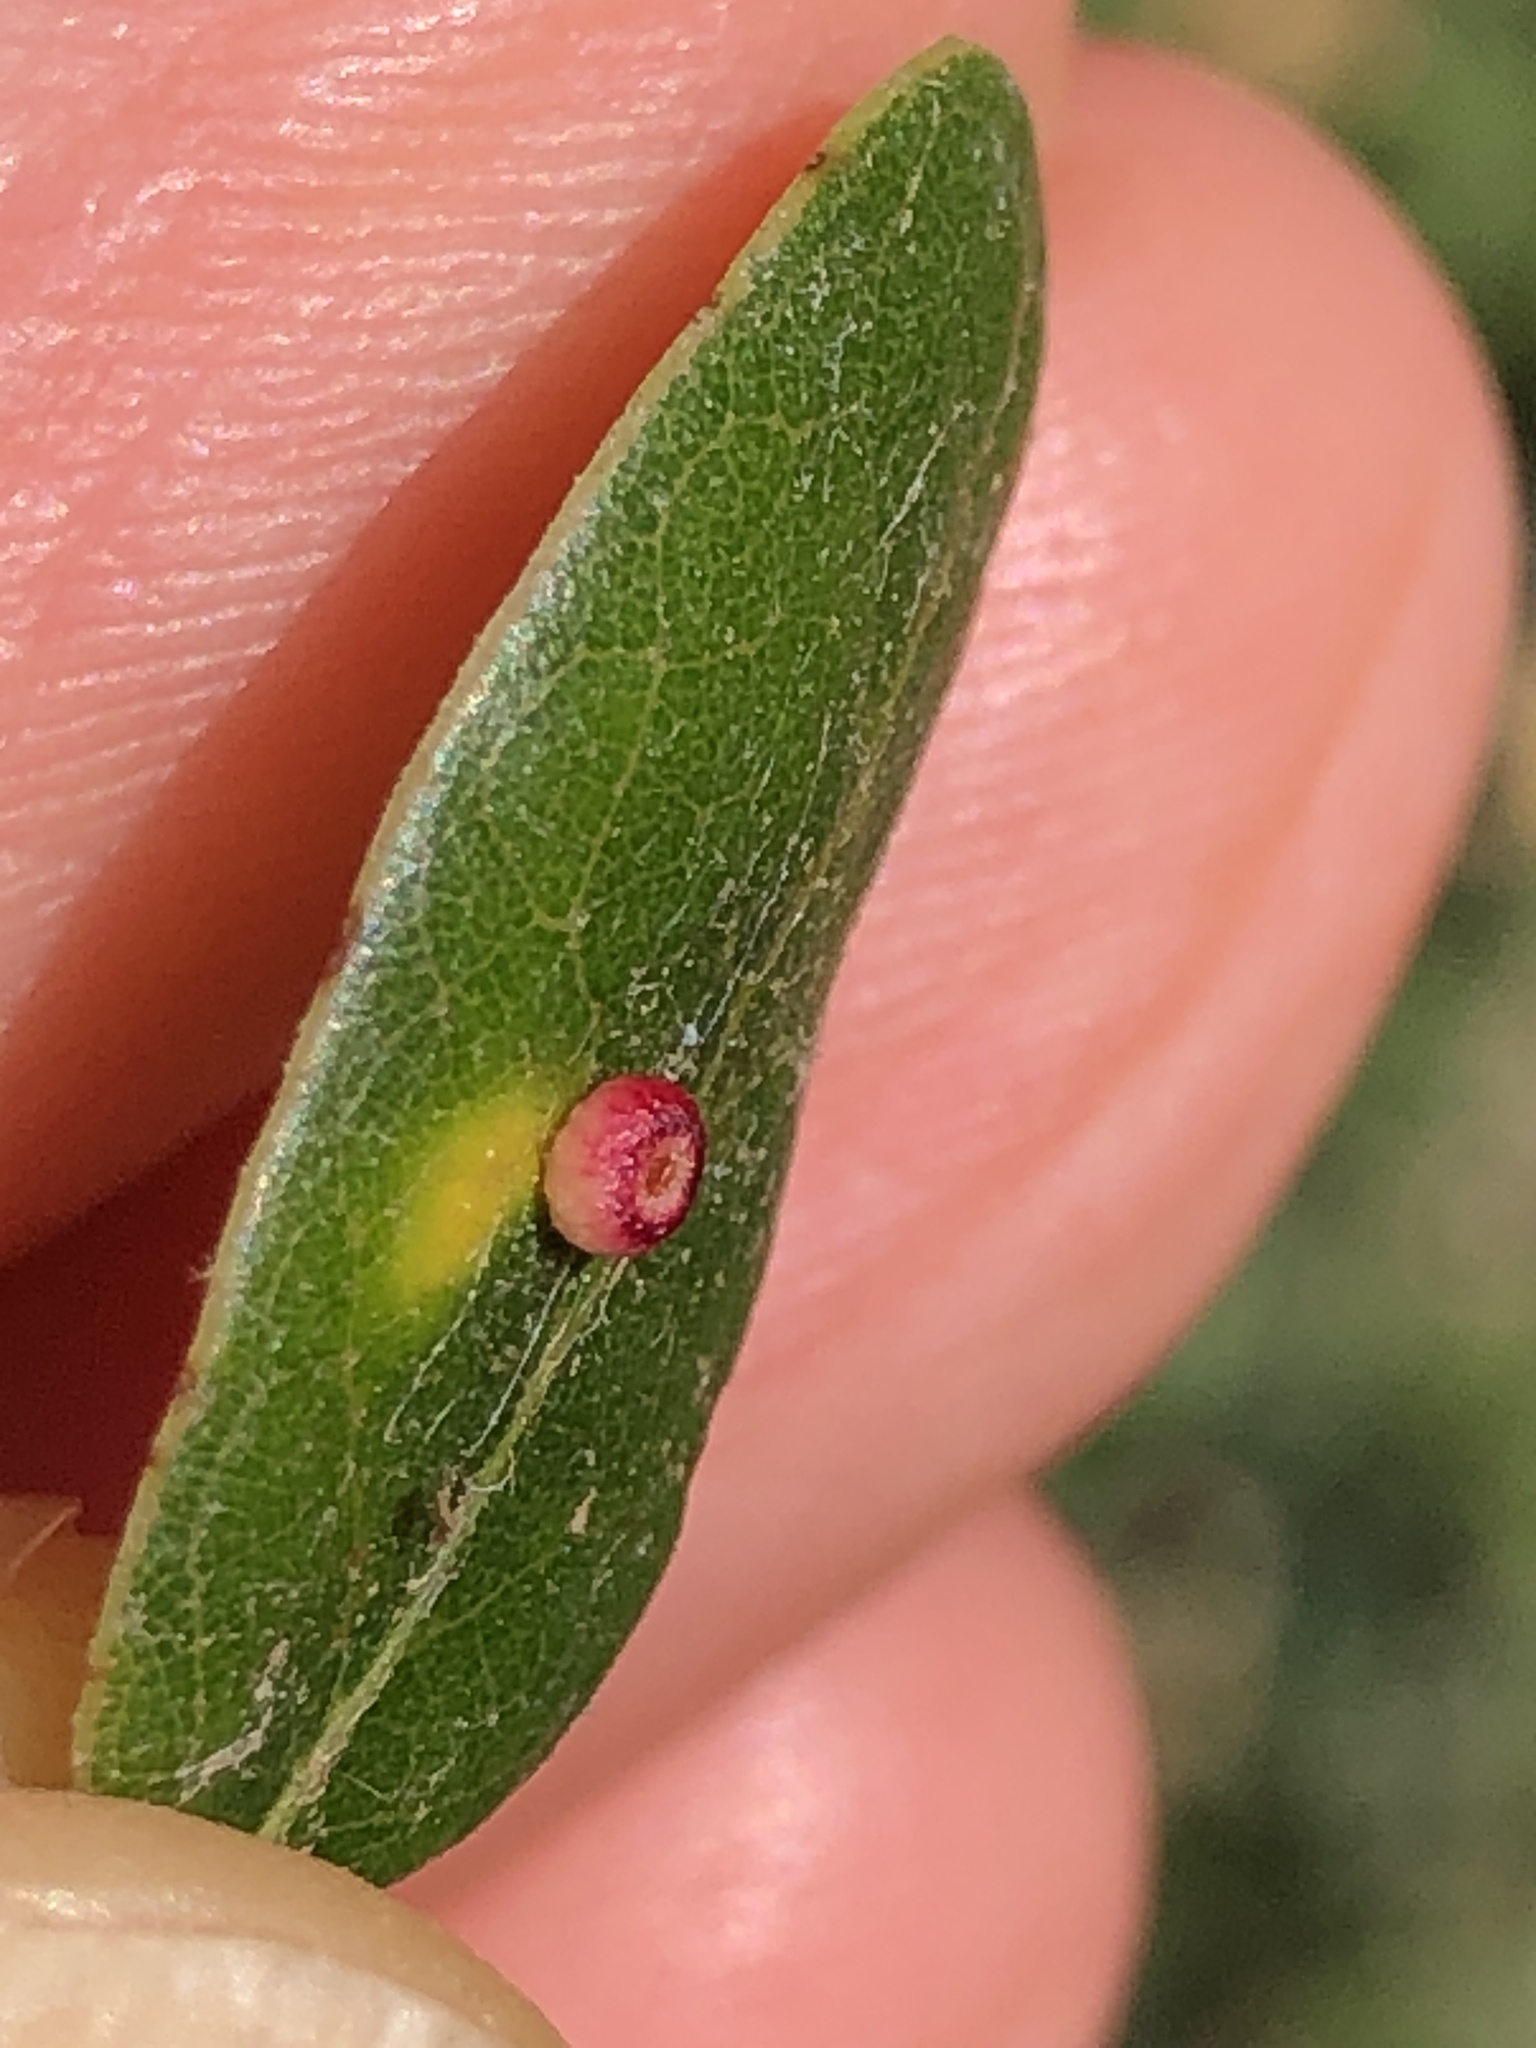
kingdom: Animalia
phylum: Arthropoda
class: Insecta
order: Hymenoptera
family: Cynipidae
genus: Dryocosmus
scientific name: Dryocosmus
